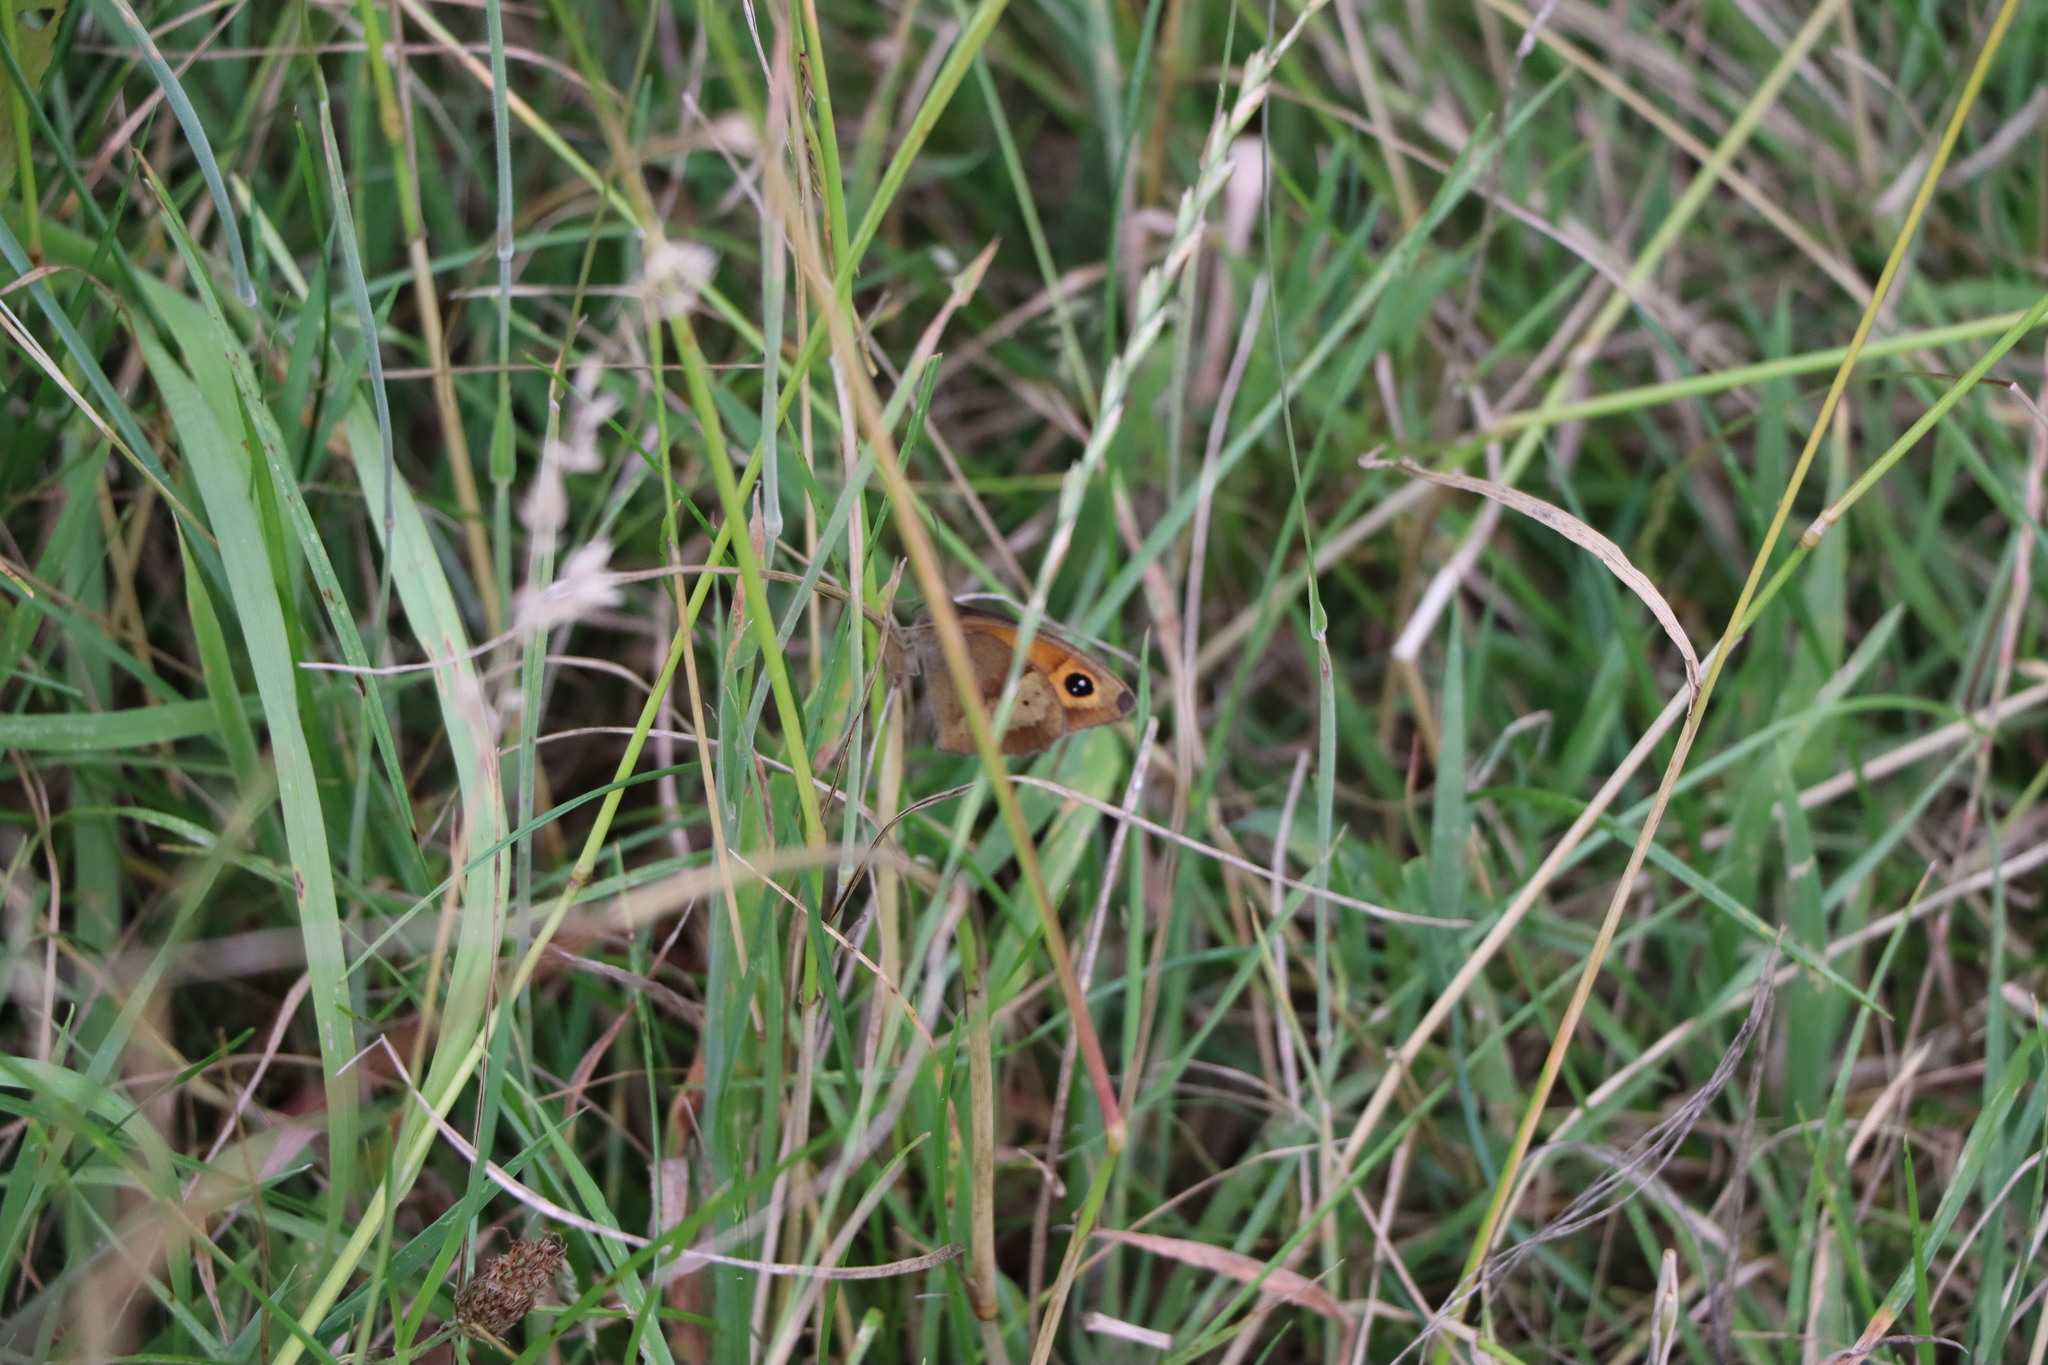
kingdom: Animalia
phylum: Arthropoda
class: Insecta
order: Lepidoptera
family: Nymphalidae
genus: Maniola
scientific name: Maniola jurtina
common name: Meadow brown
